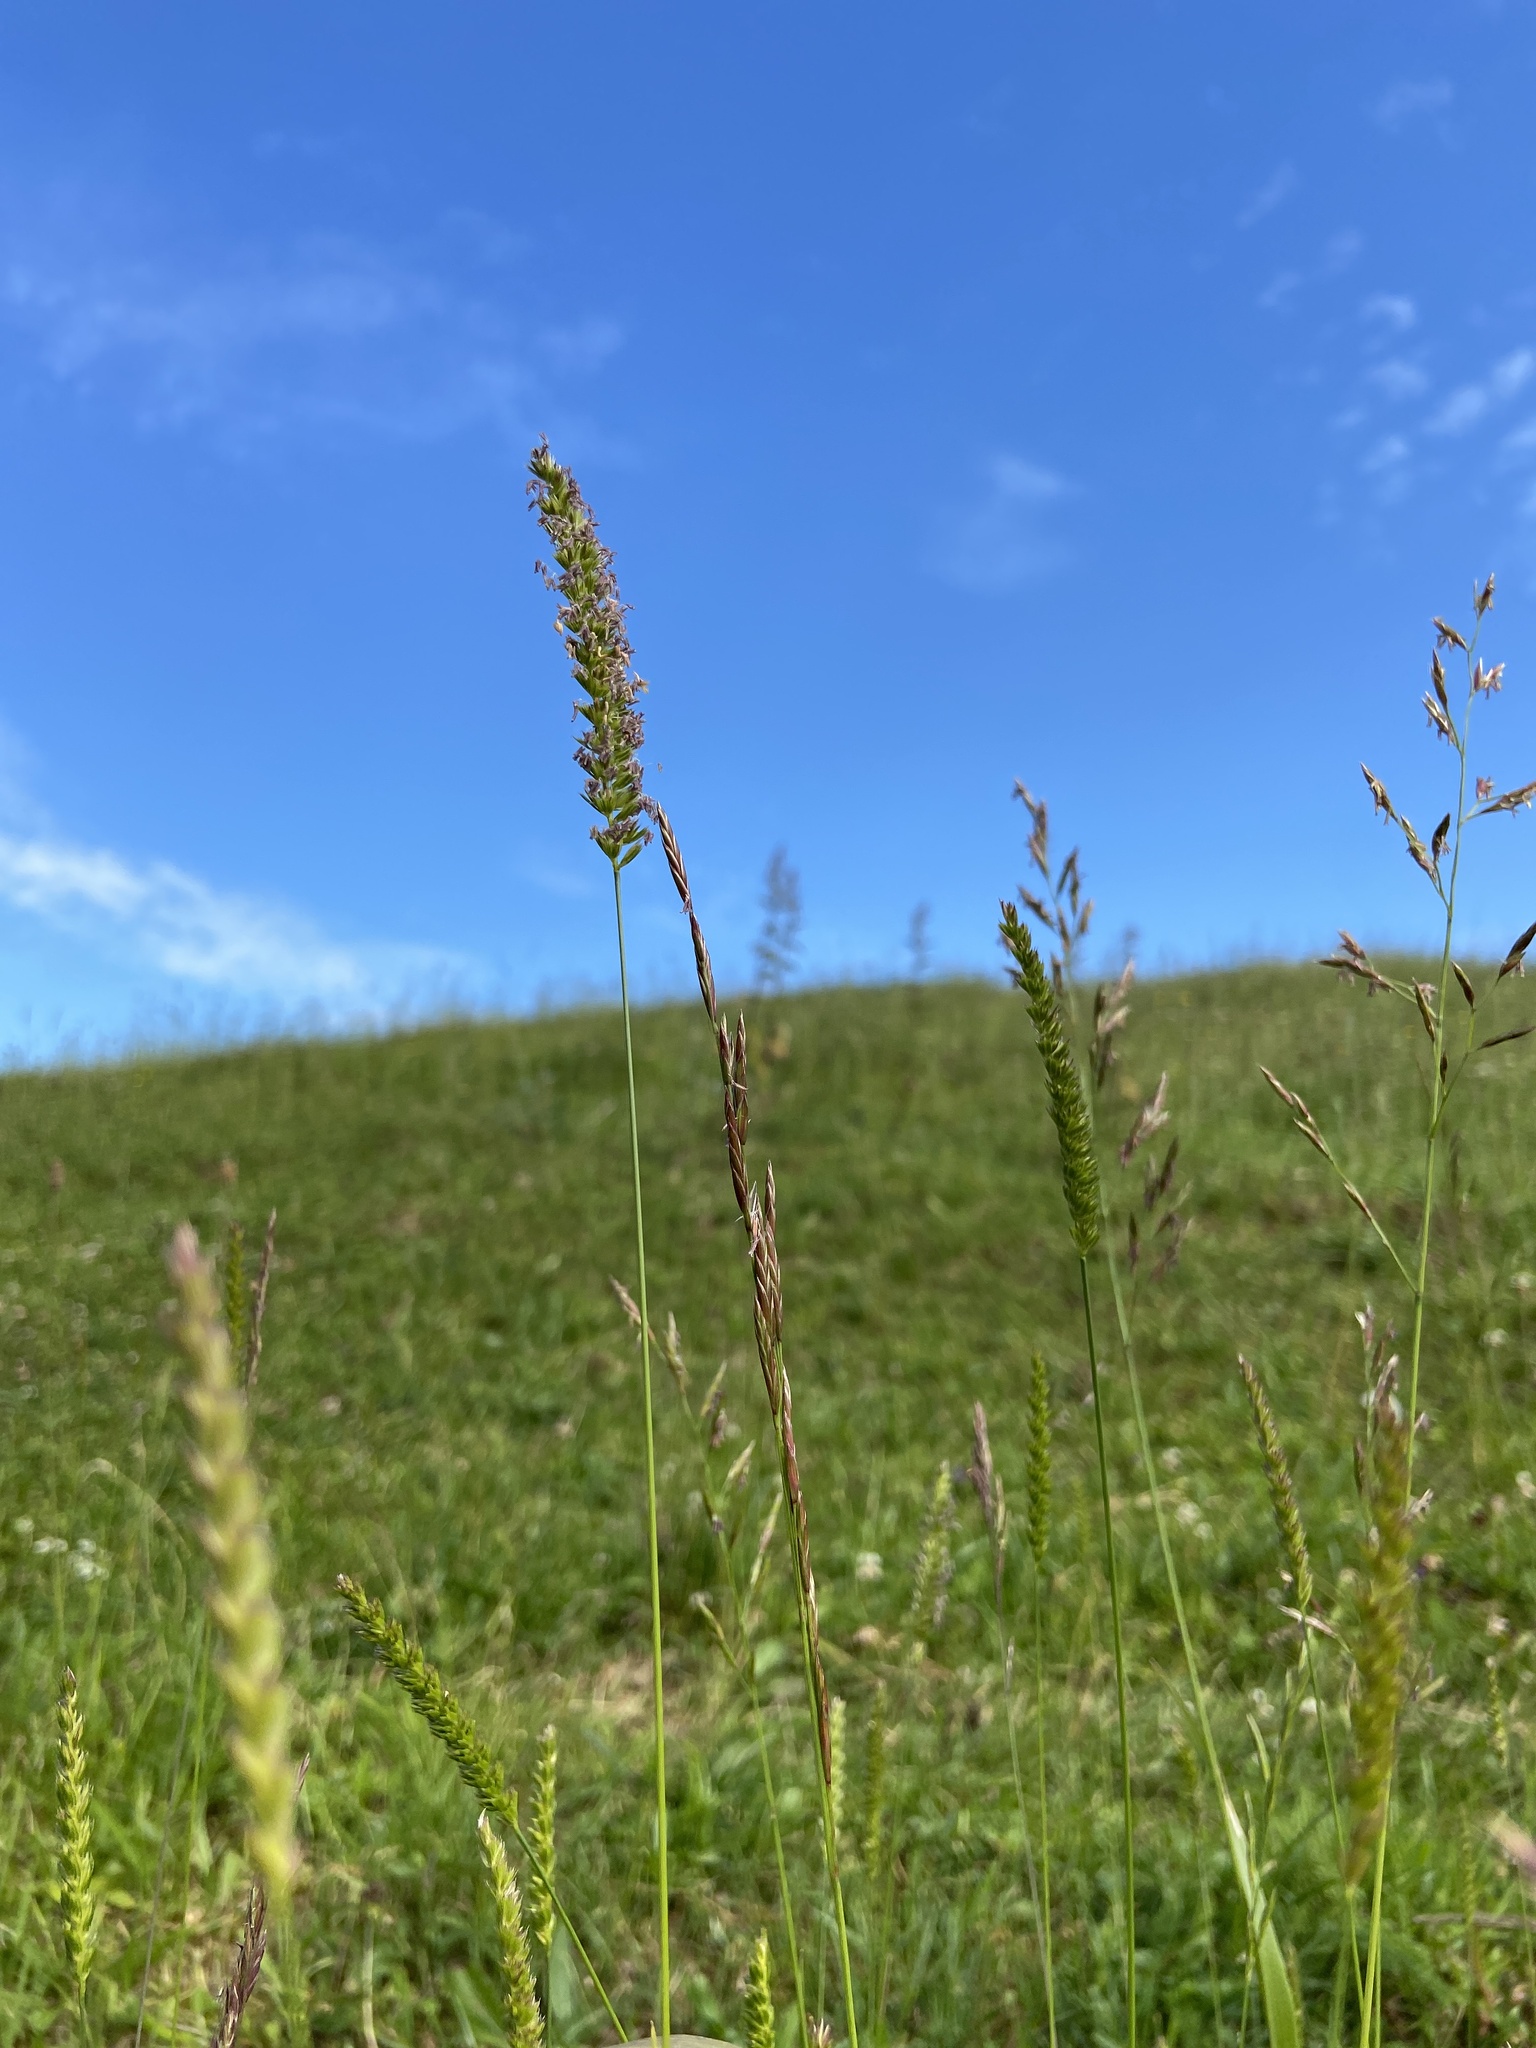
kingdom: Plantae
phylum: Tracheophyta
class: Liliopsida
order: Poales
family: Poaceae
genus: Cynosurus
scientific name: Cynosurus cristatus
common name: Crested dog's-tail
